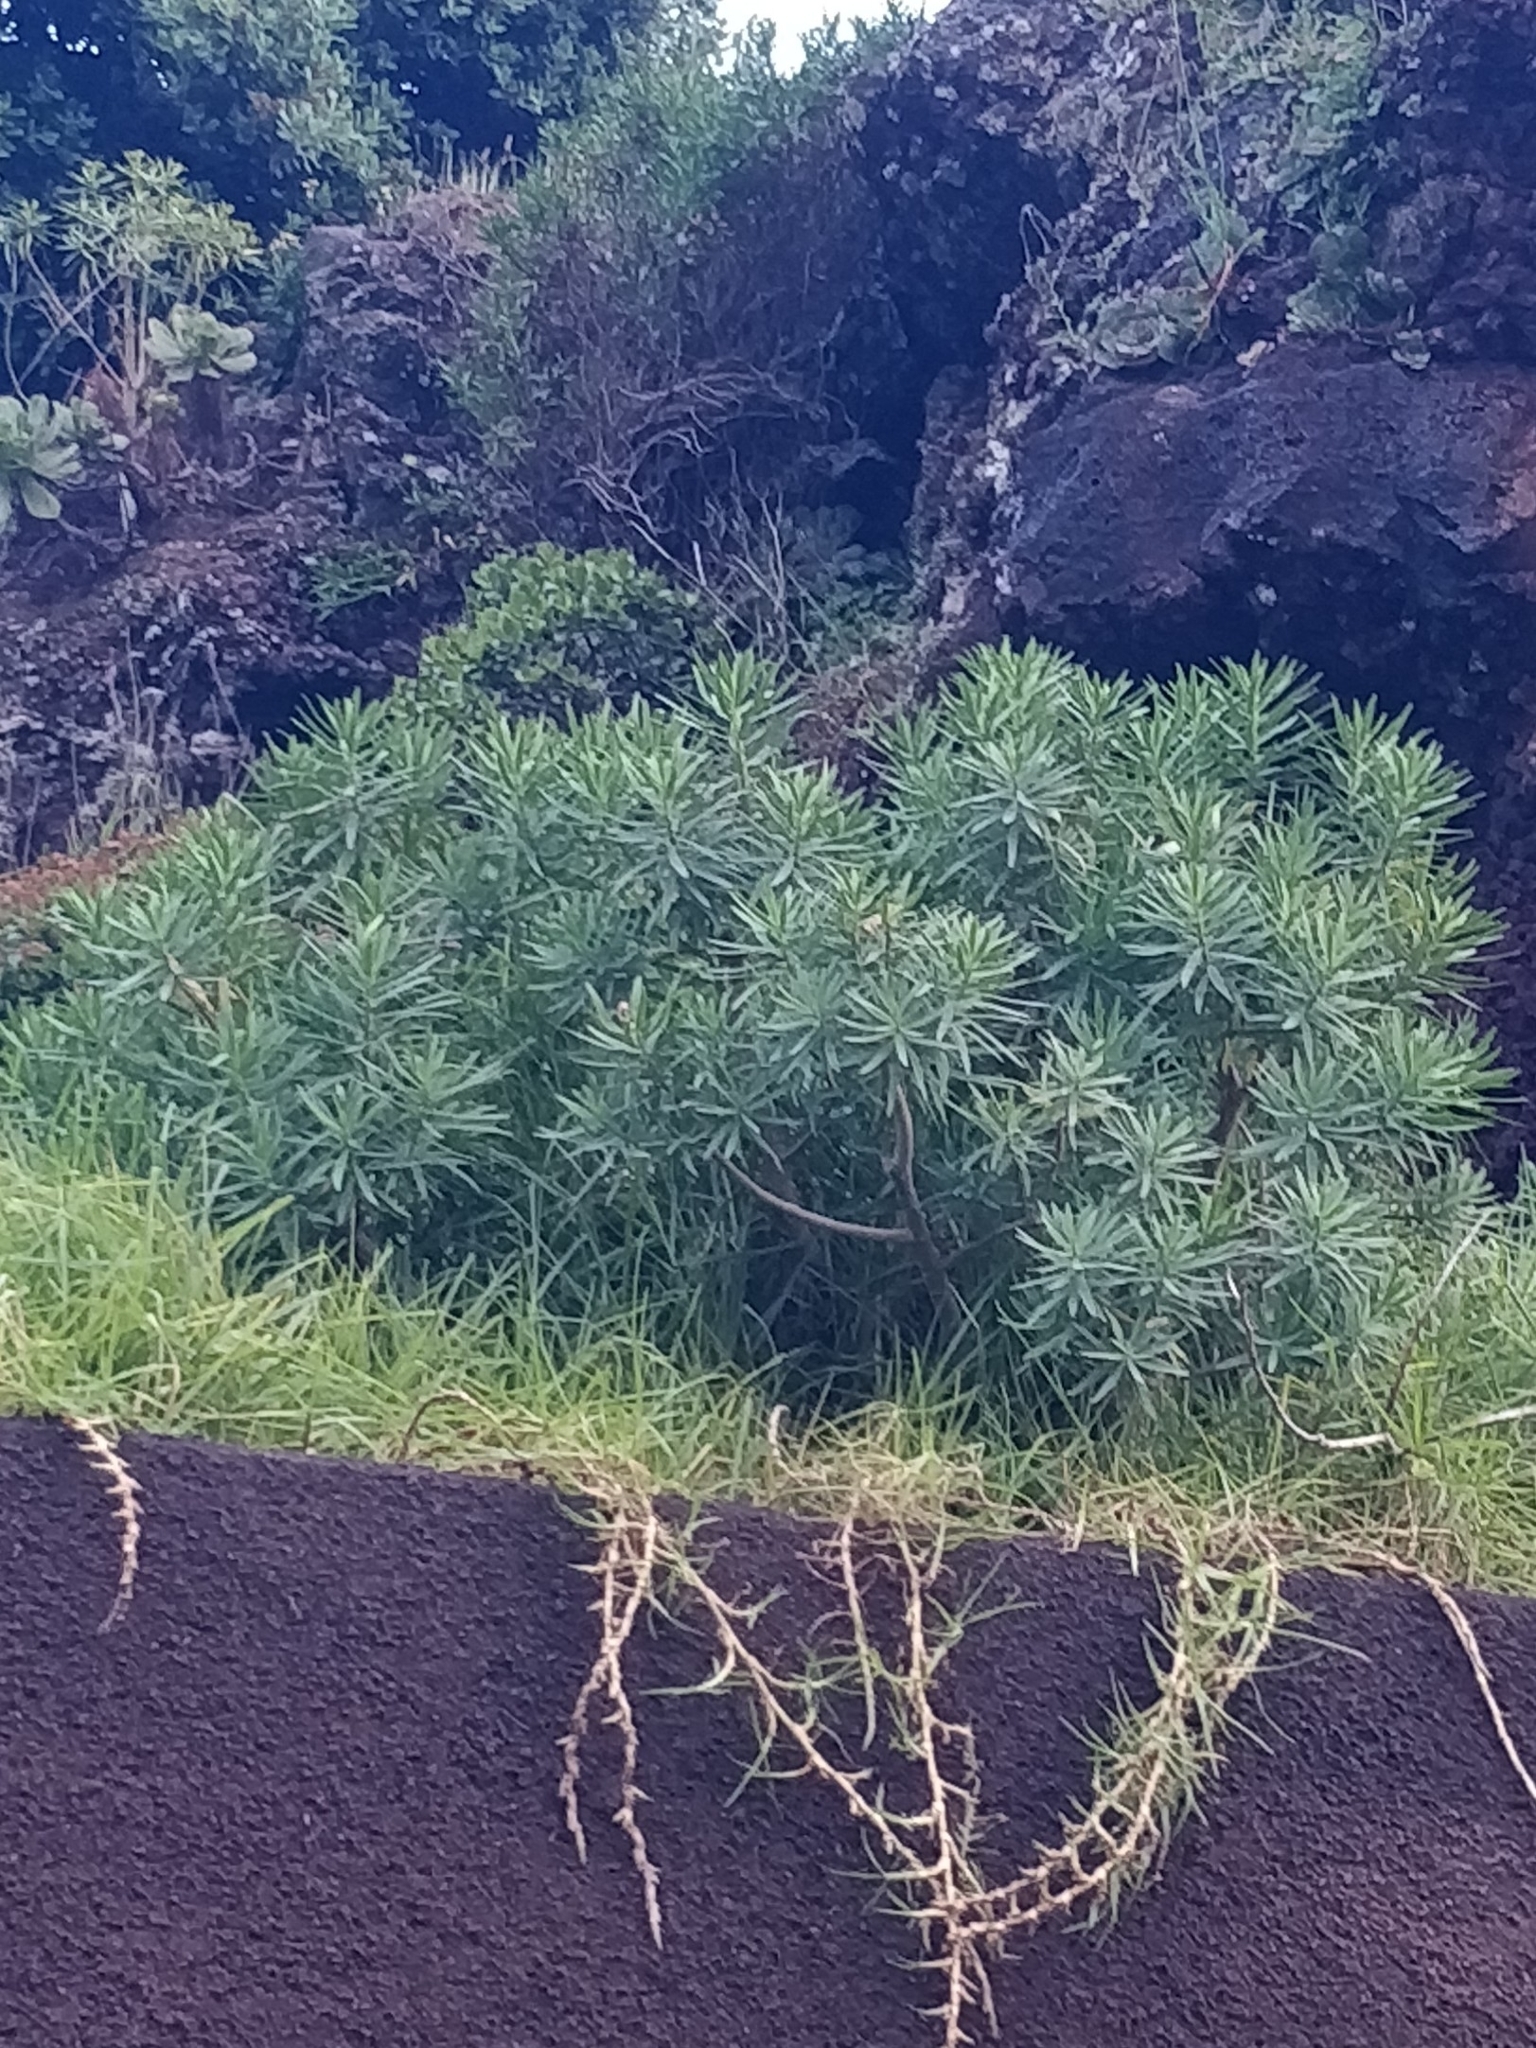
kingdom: Plantae
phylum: Tracheophyta
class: Magnoliopsida
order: Malpighiales
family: Euphorbiaceae
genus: Euphorbia
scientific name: Euphorbia piscatoria
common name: Fish-stunning spurge
